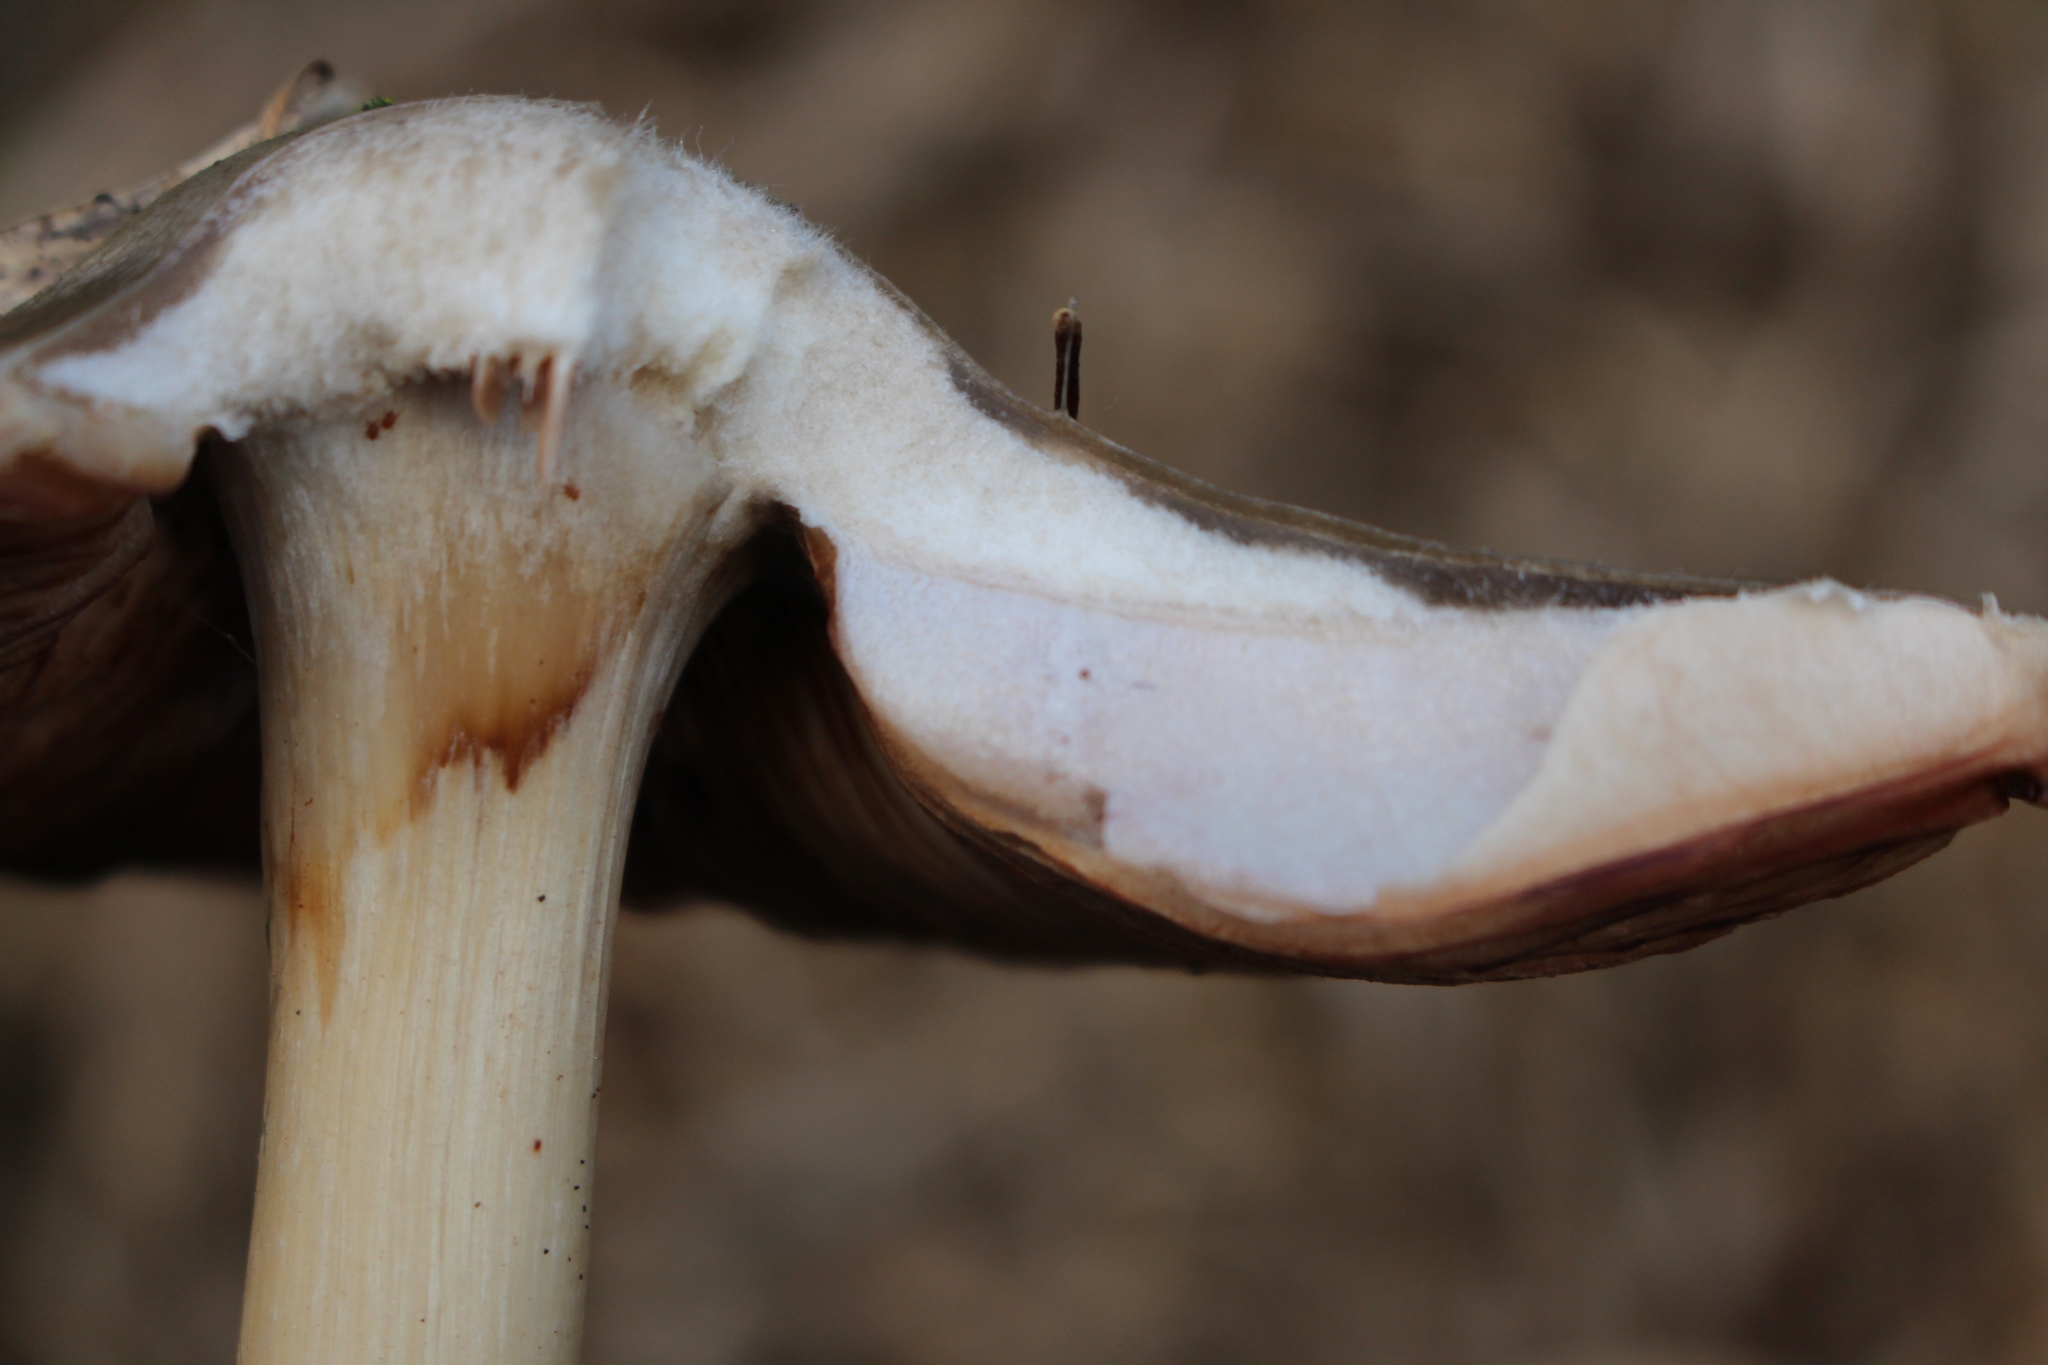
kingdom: Fungi
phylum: Basidiomycota
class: Agaricomycetes
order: Agaricales
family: Pluteaceae
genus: Volvopluteus
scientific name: Volvopluteus gloiocephalus
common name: Stubble rosegill
